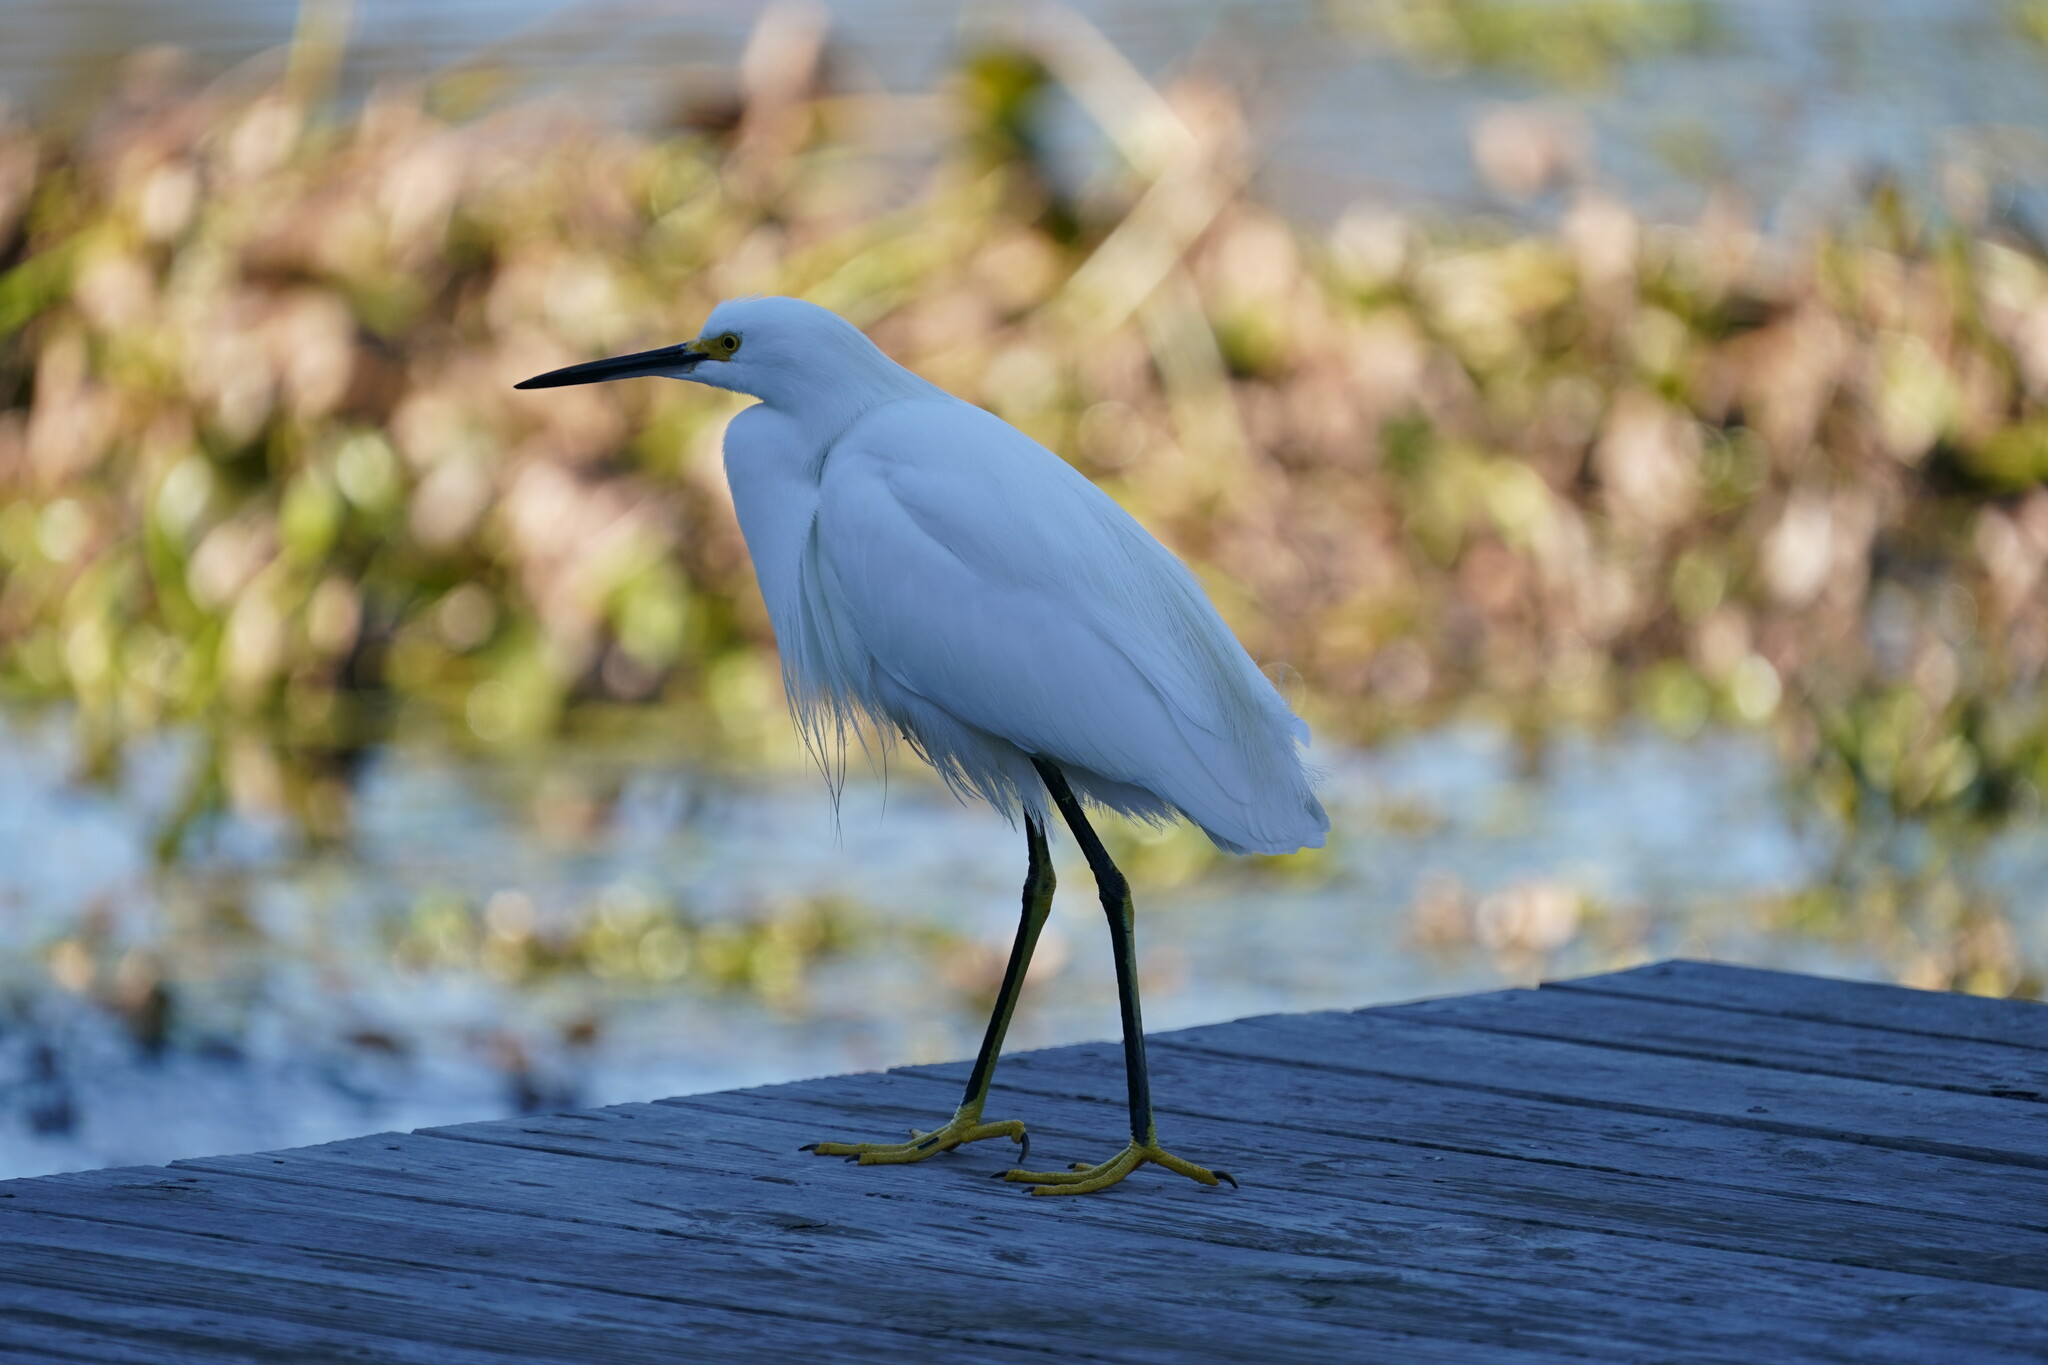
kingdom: Animalia
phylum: Chordata
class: Aves
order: Pelecaniformes
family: Ardeidae
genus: Egretta
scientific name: Egretta thula
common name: Snowy egret
